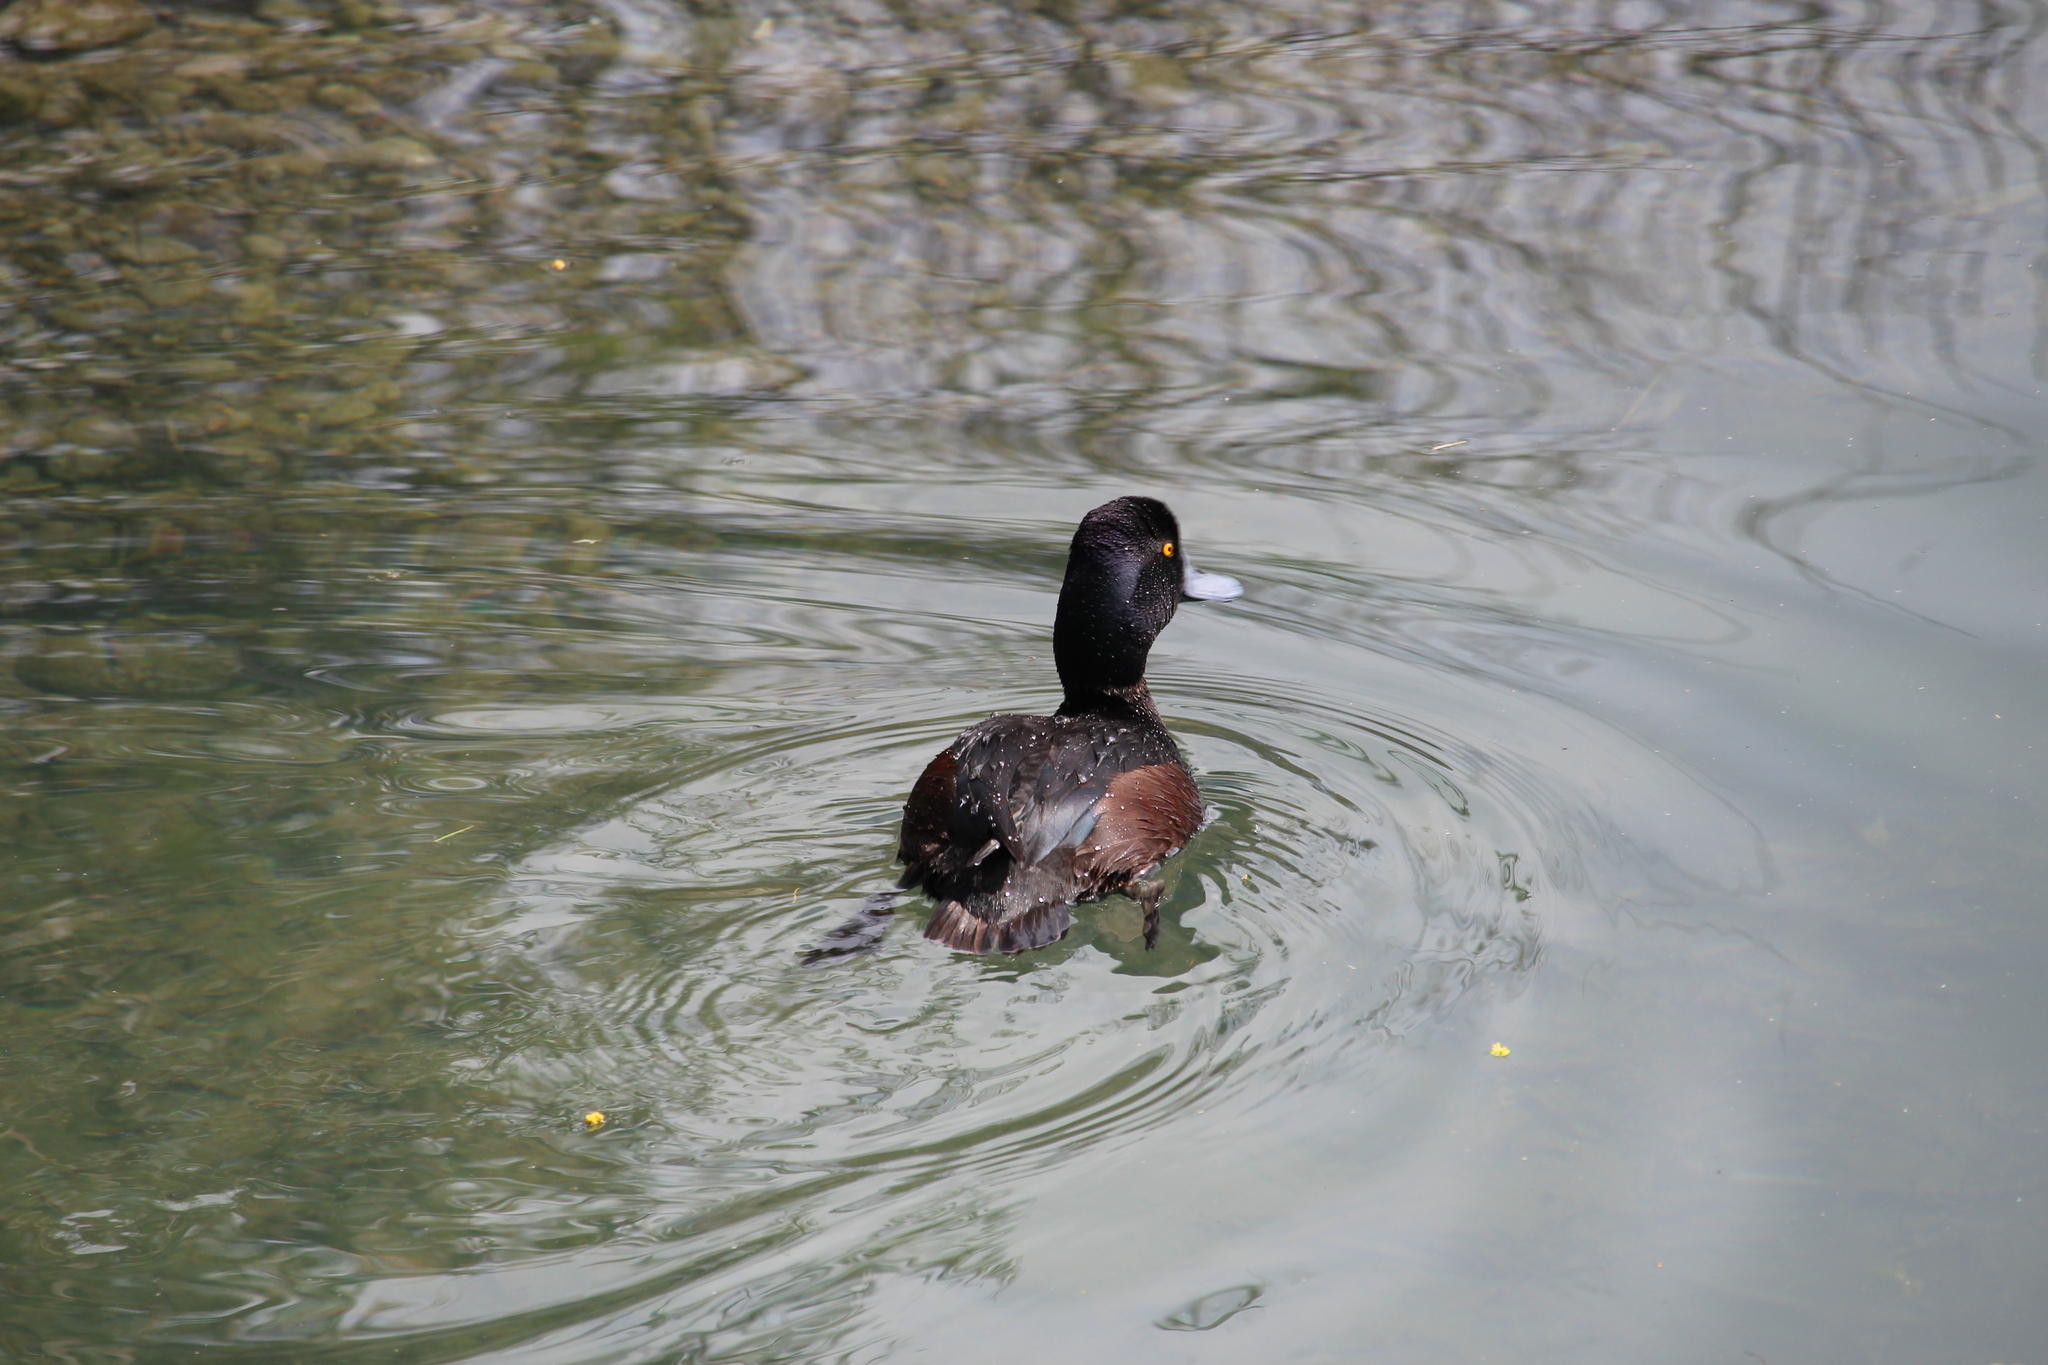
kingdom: Animalia
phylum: Chordata
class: Aves
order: Anseriformes
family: Anatidae
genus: Aythya
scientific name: Aythya novaeseelandiae
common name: New zealand scaup
